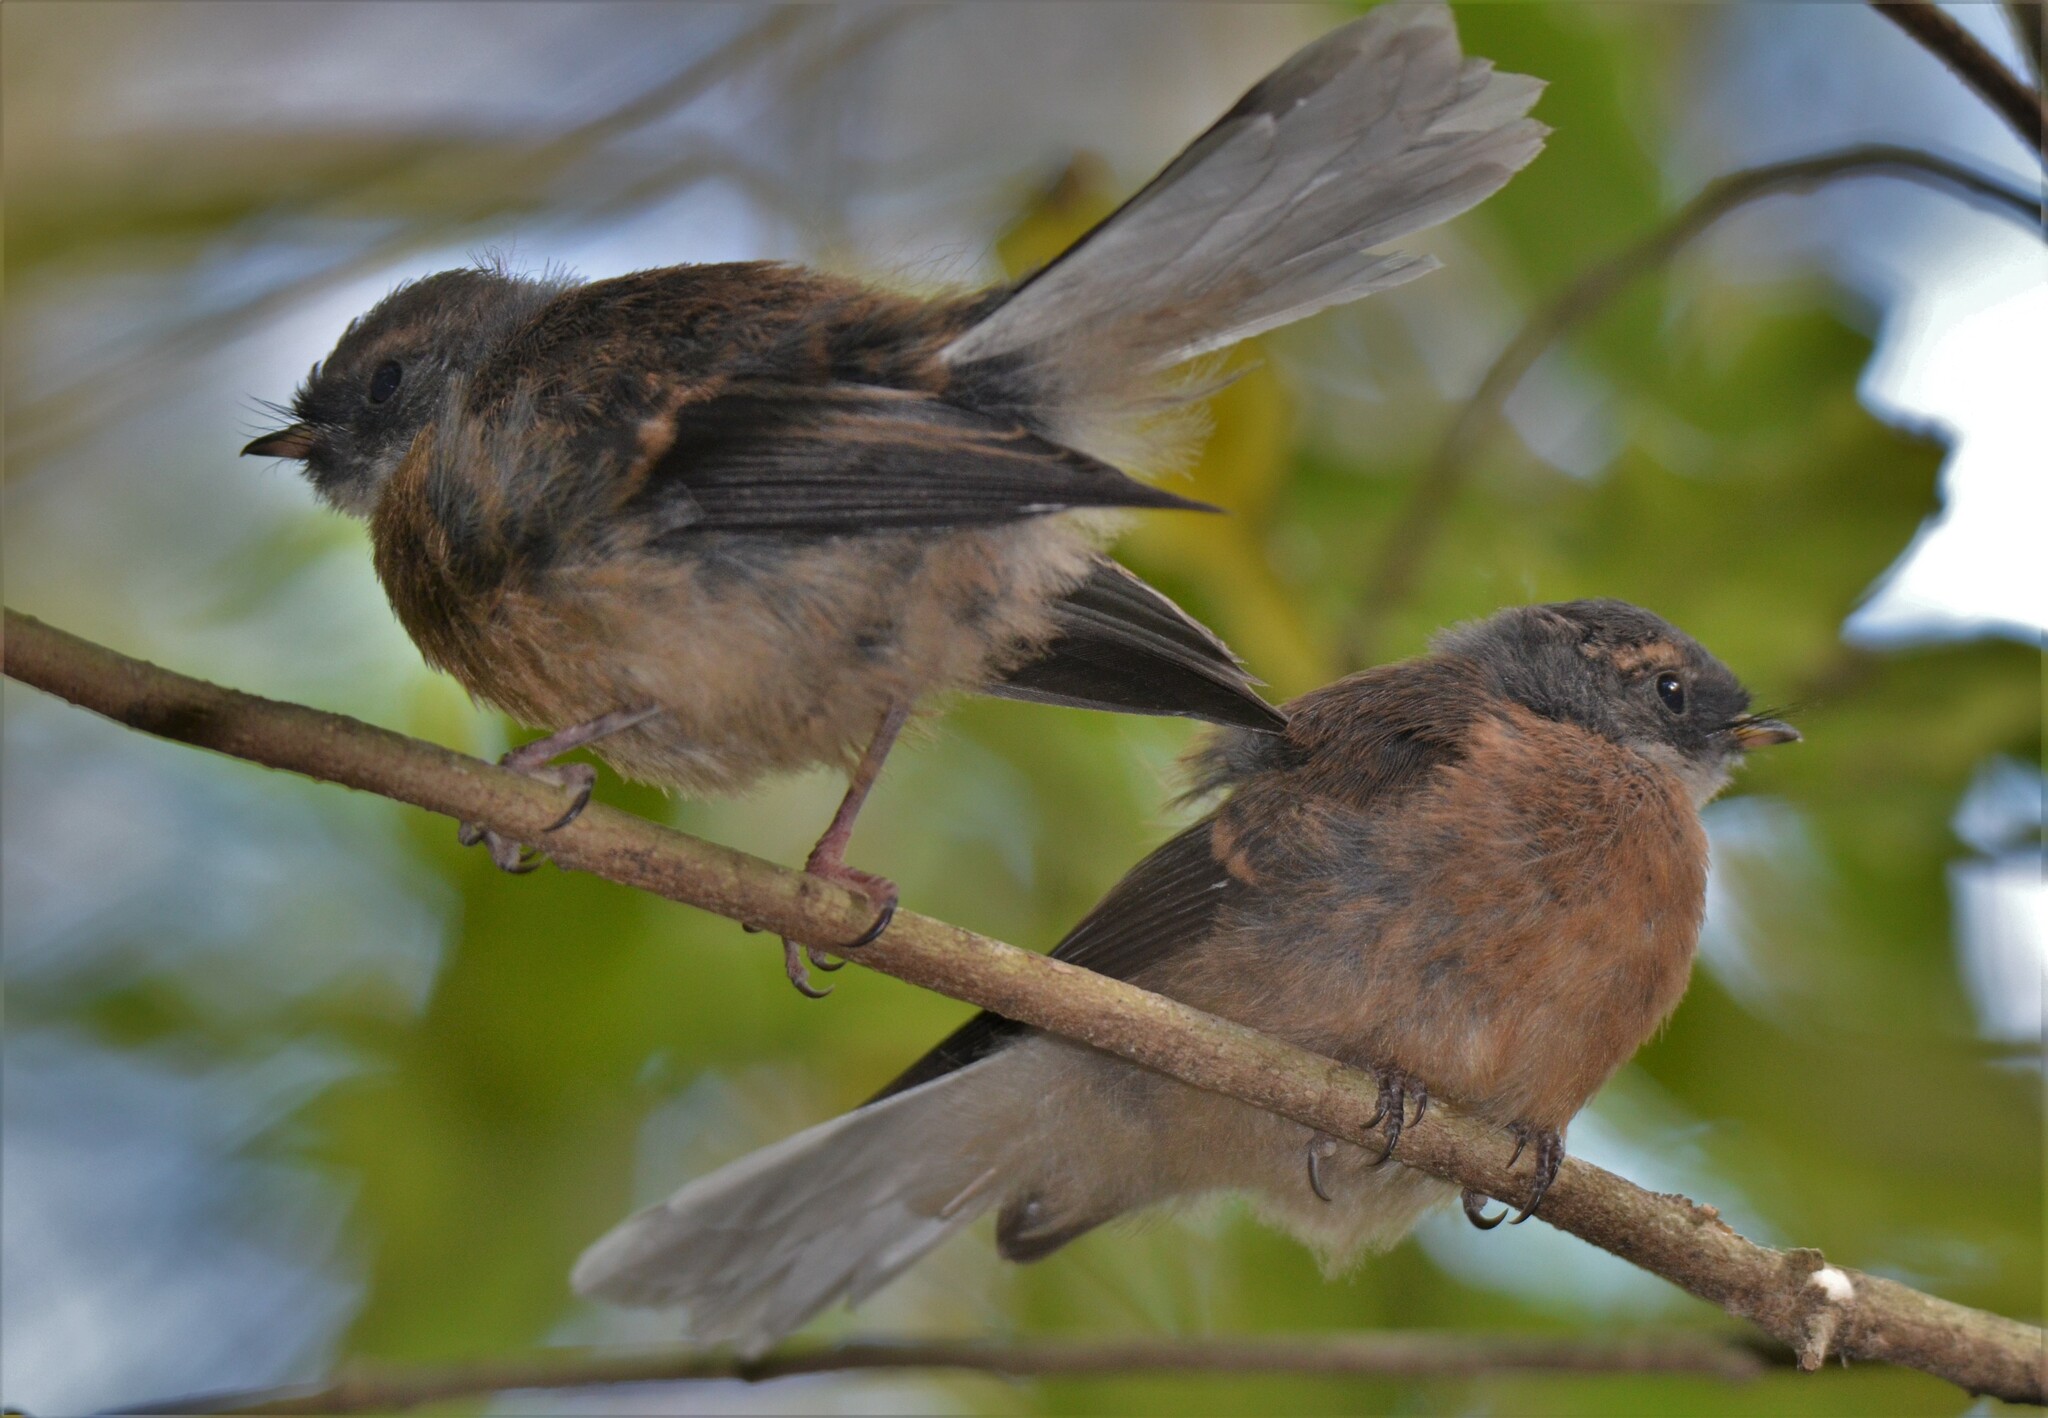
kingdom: Animalia
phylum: Chordata
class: Aves
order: Passeriformes
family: Rhipiduridae
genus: Rhipidura
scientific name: Rhipidura fuliginosa
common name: New zealand fantail
